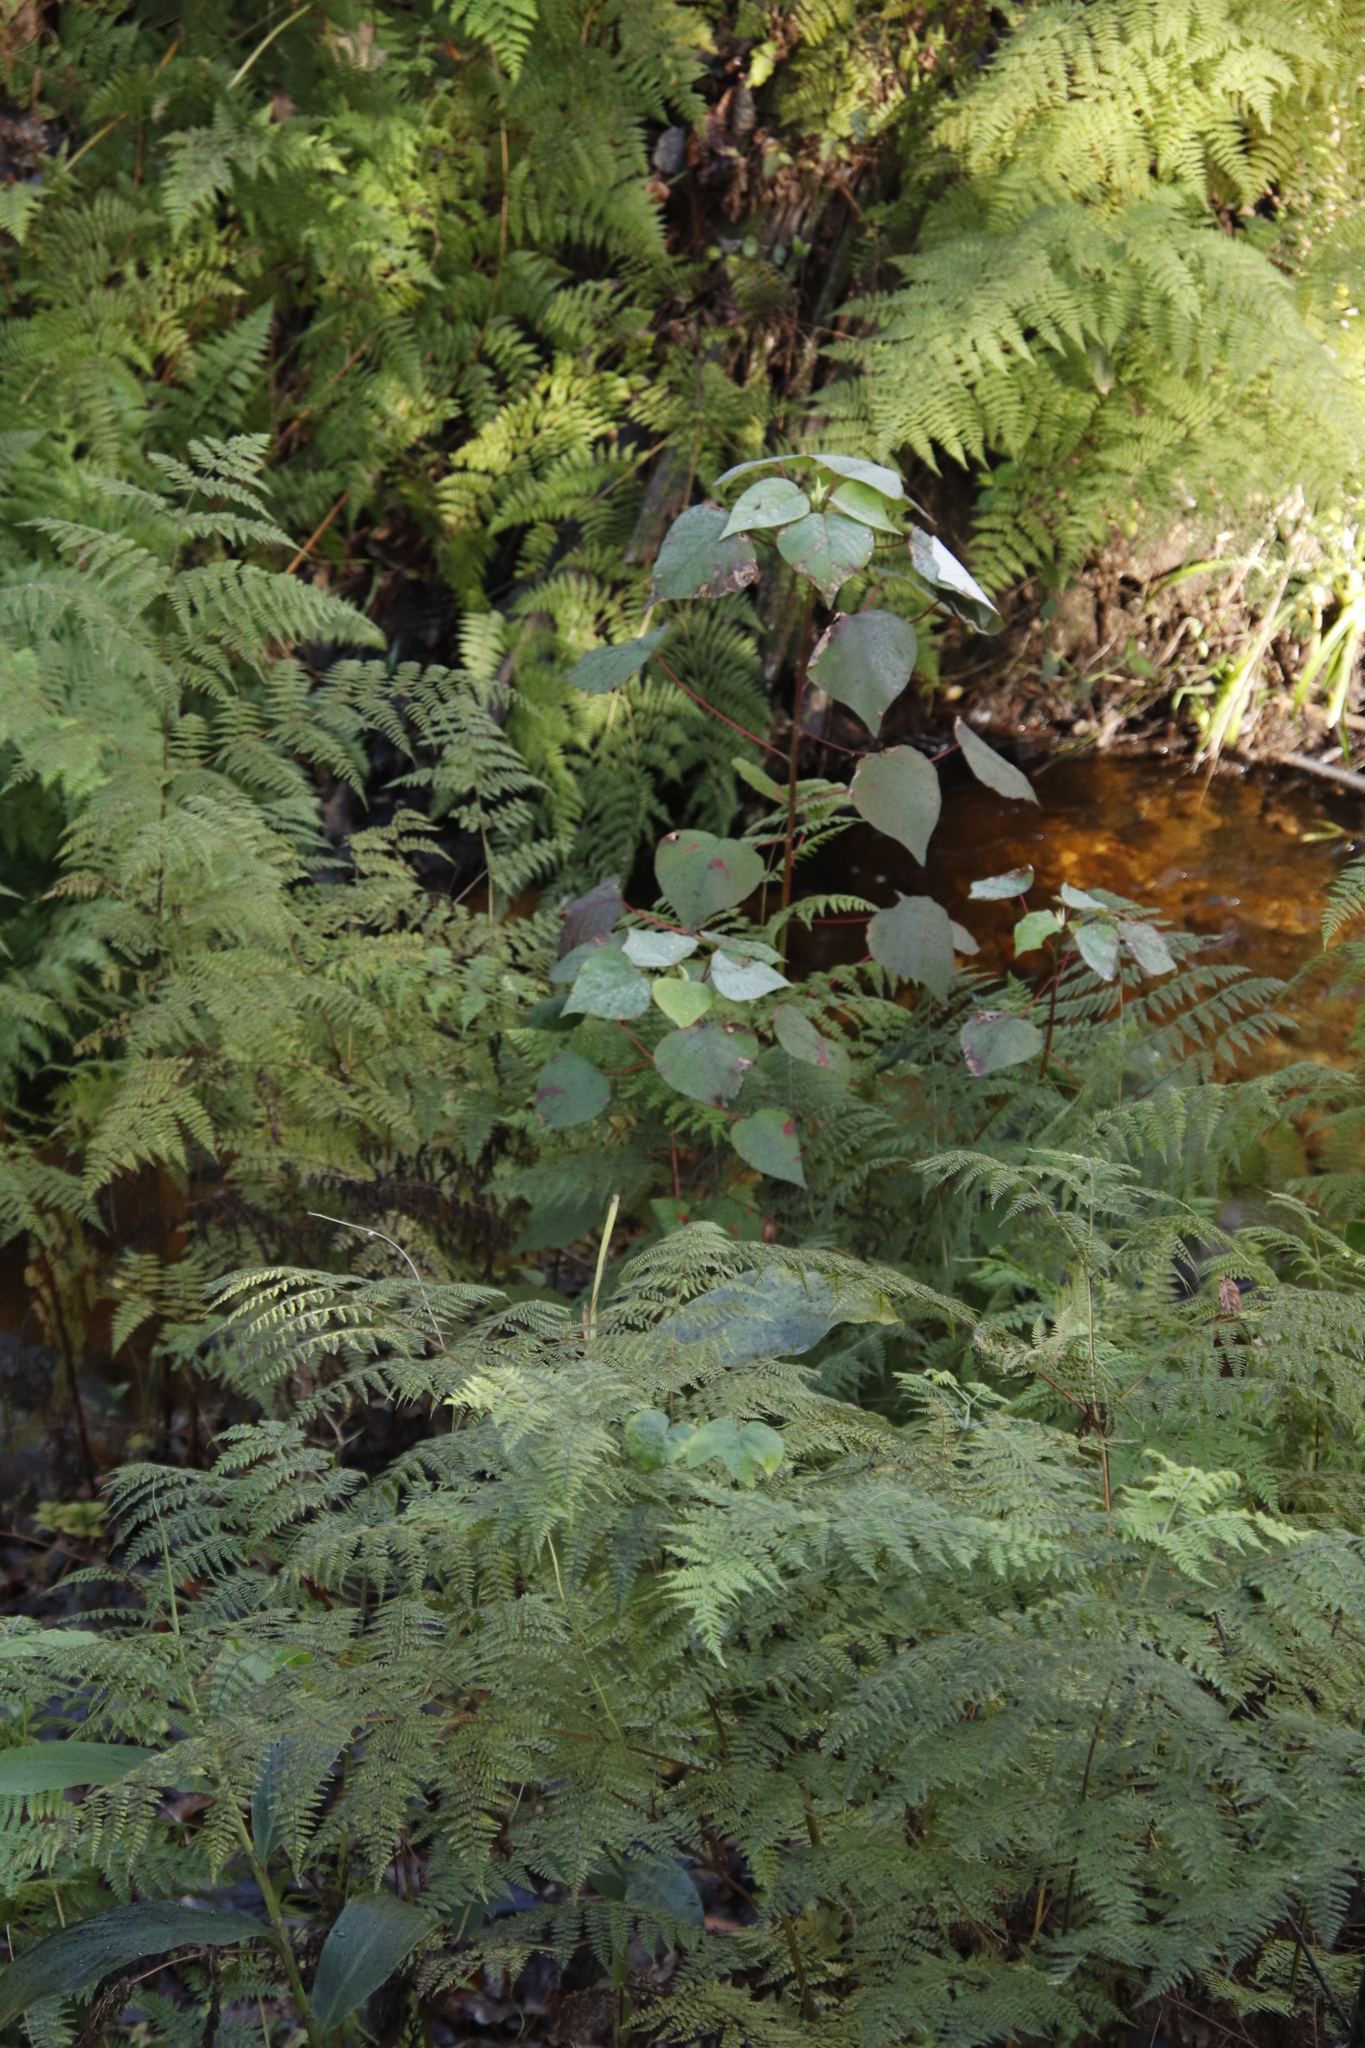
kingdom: Plantae
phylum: Tracheophyta
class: Magnoliopsida
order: Malpighiales
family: Euphorbiaceae
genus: Homalanthus
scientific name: Homalanthus populifolius
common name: Queensland poplar
